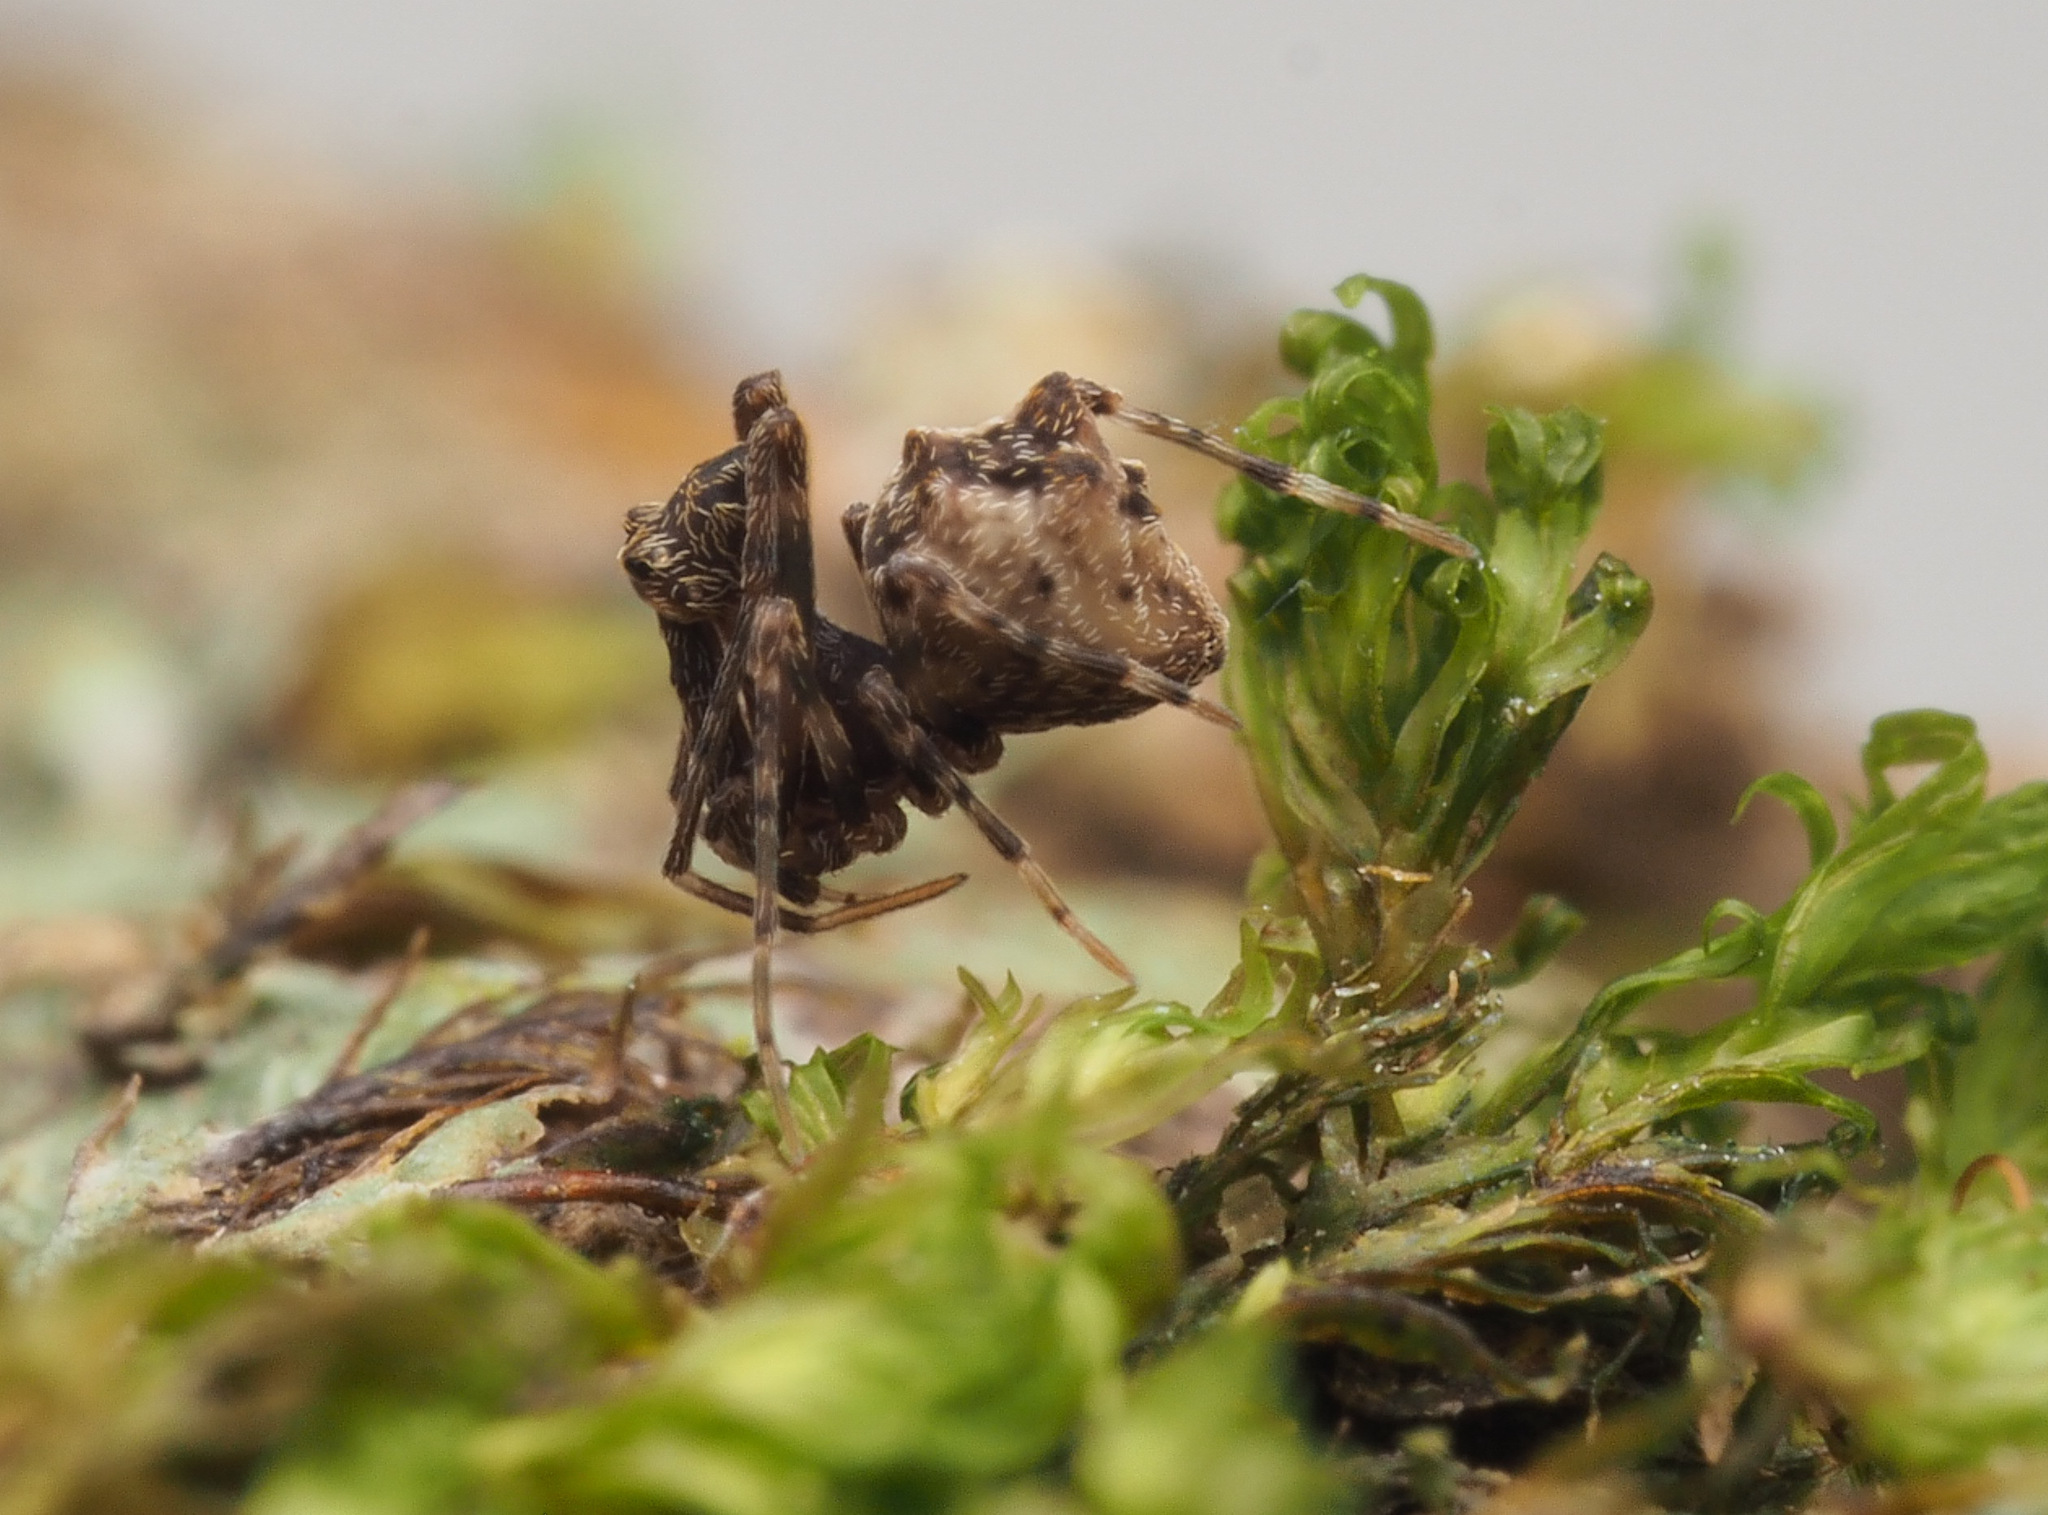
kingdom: Animalia
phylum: Arthropoda
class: Arachnida
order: Araneae
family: Archaeidae
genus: Austrarchaea
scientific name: Austrarchaea judyae
